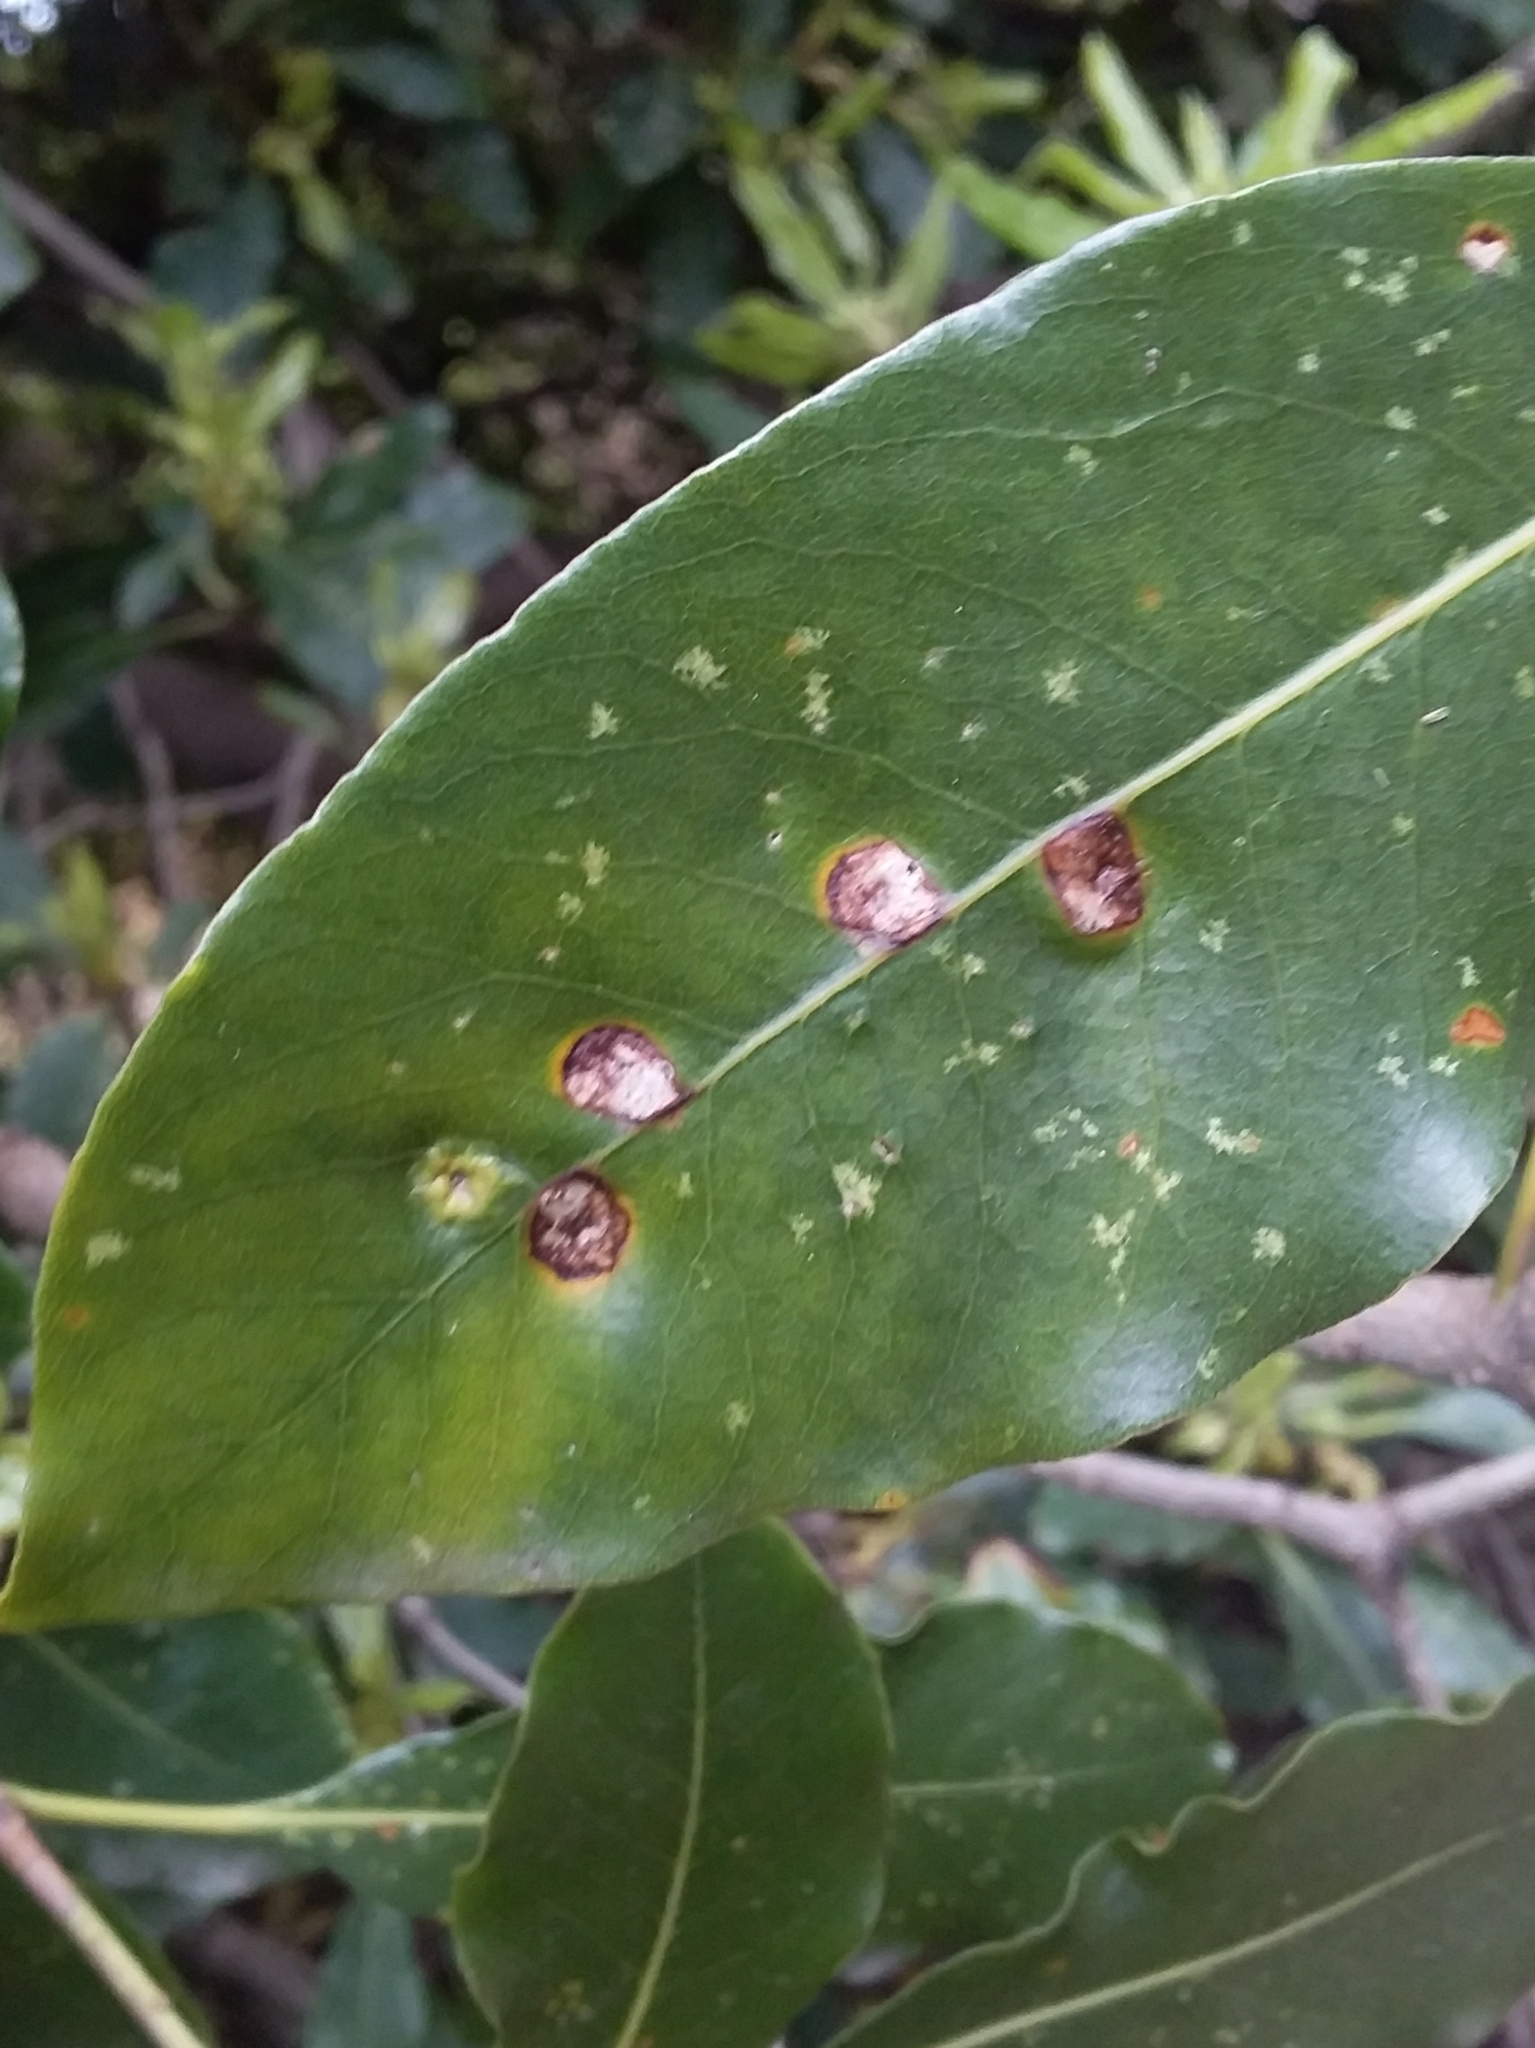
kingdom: Animalia
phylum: Arthropoda
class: Insecta
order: Diptera
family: Agromyzidae
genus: Phytoliriomyza
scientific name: Phytoliriomyza pittosporophylli
